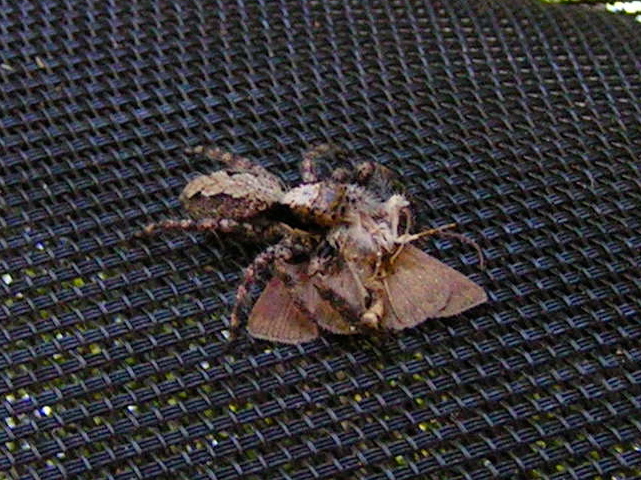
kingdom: Animalia
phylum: Arthropoda
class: Arachnida
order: Araneae
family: Salticidae
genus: Balmaceda
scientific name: Balmaceda
